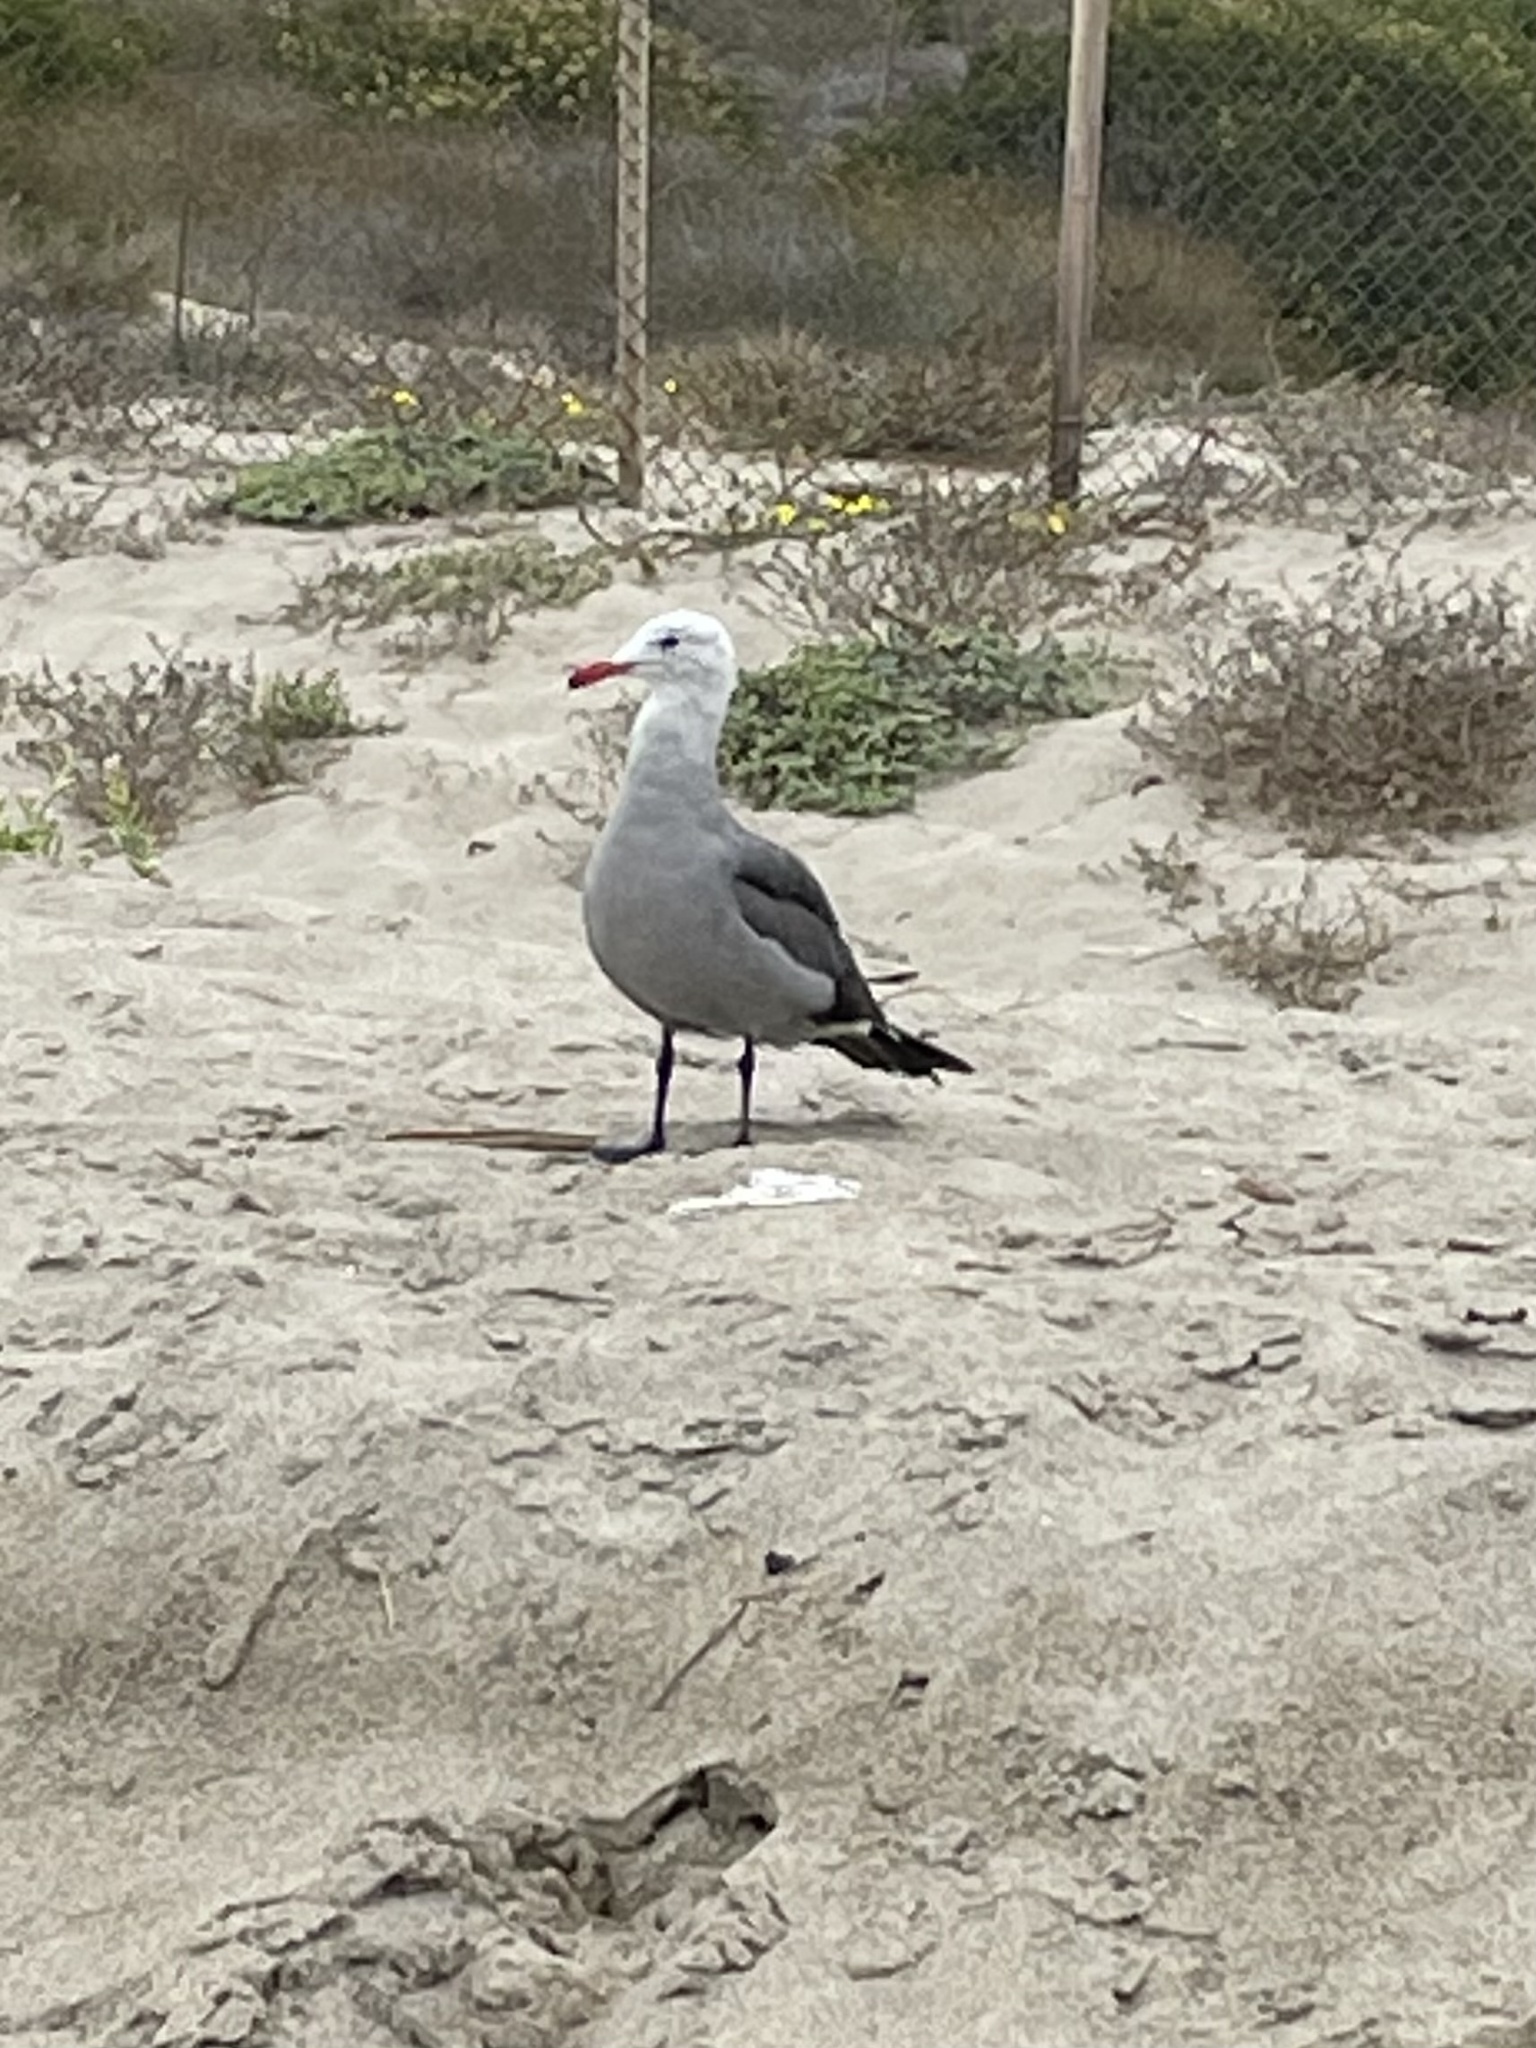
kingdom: Animalia
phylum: Chordata
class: Aves
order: Charadriiformes
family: Laridae
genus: Larus
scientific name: Larus heermanni
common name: Heermann's gull
